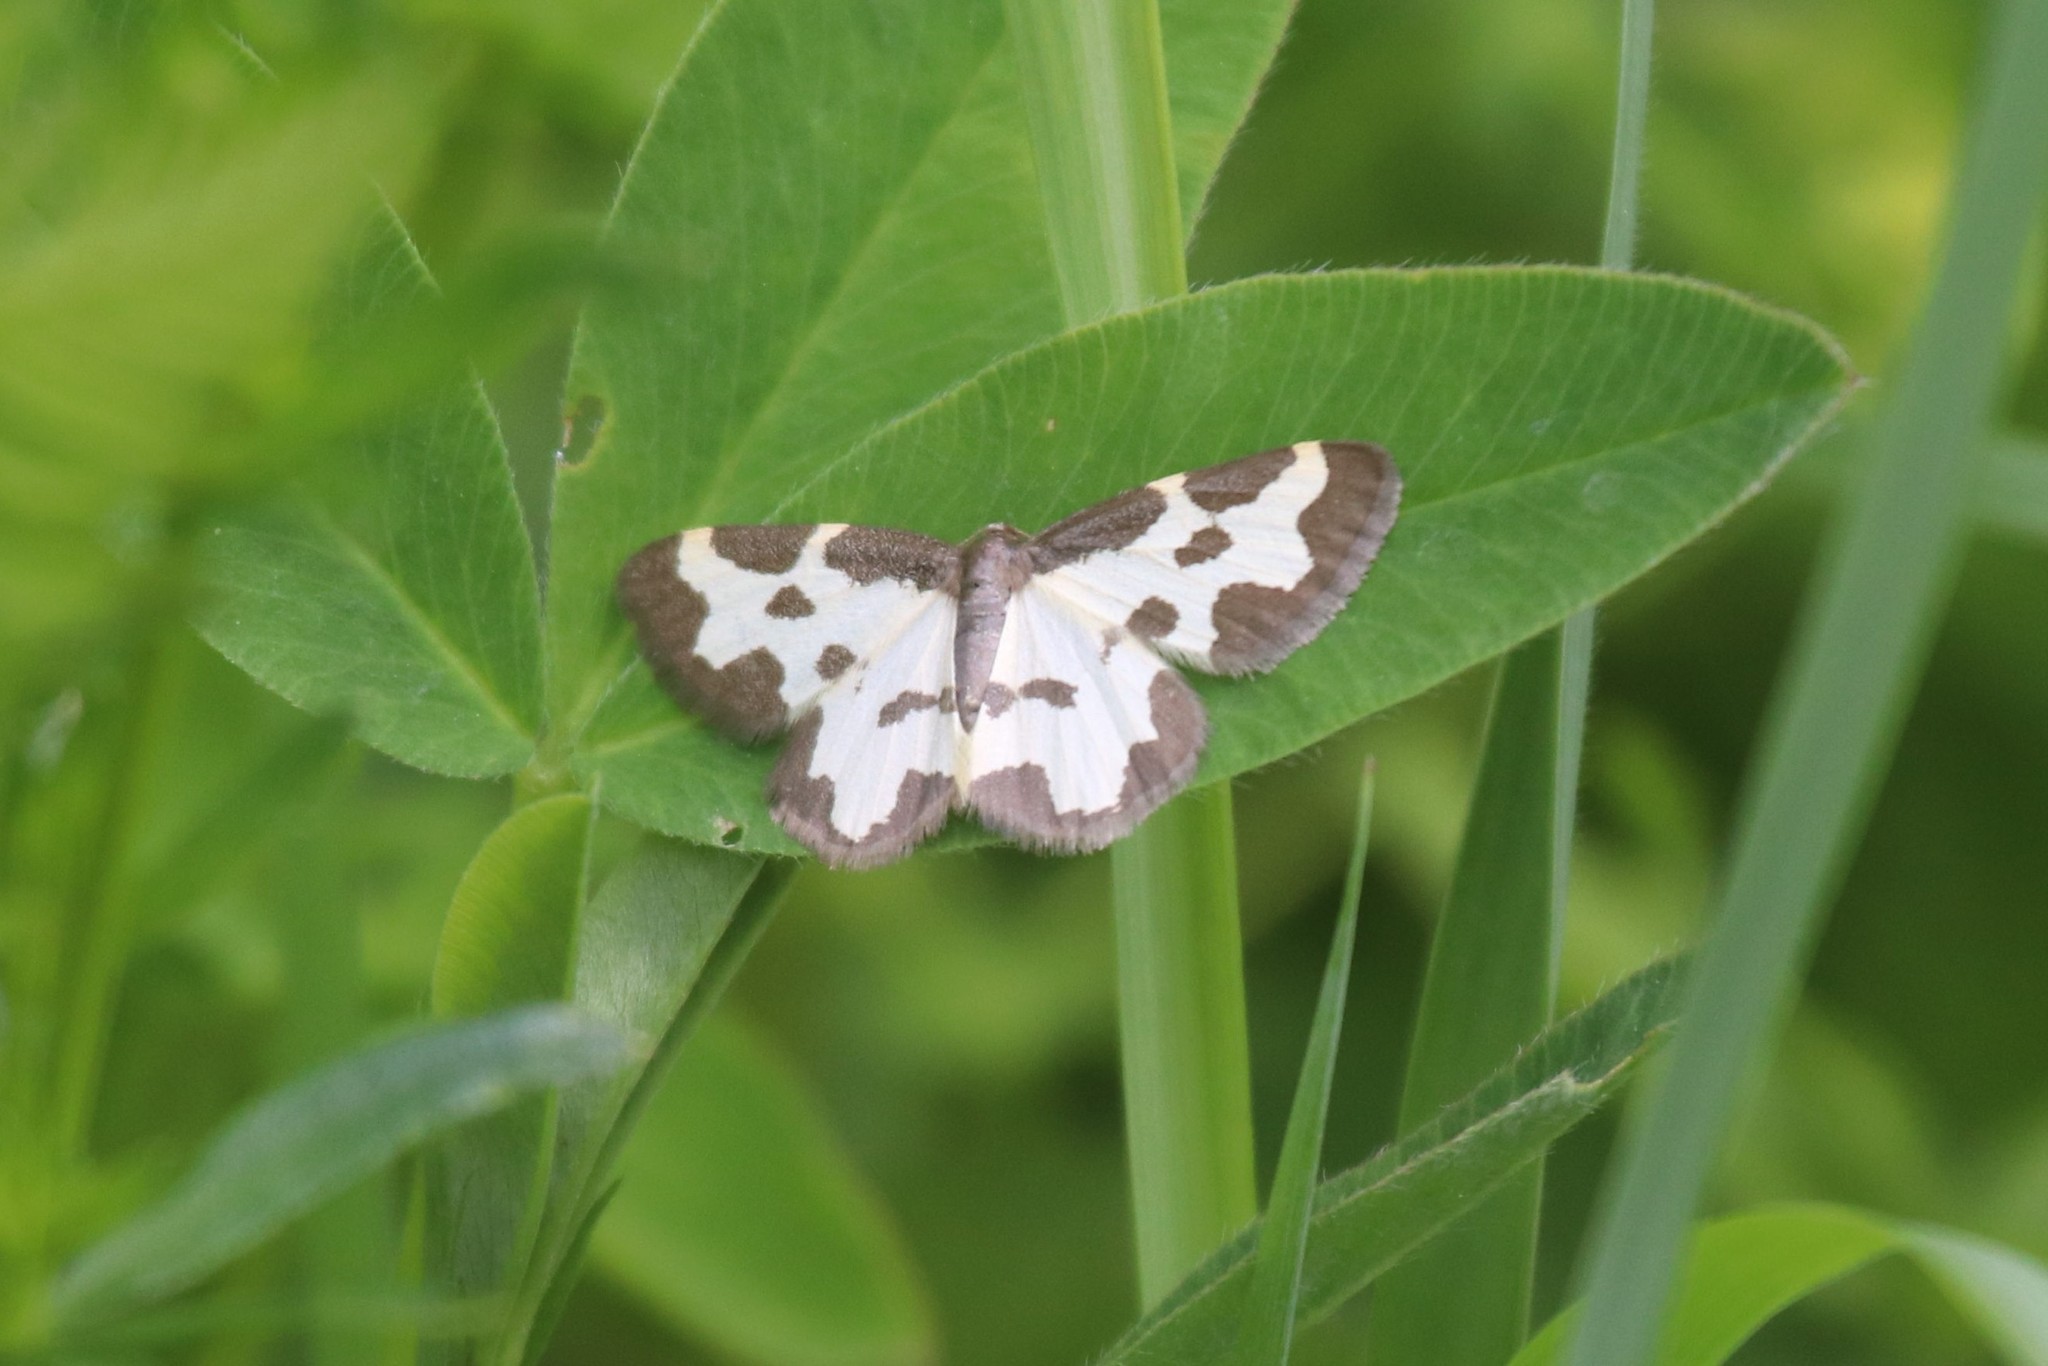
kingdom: Animalia
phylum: Arthropoda
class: Insecta
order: Lepidoptera
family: Geometridae
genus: Lomaspilis
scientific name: Lomaspilis marginata
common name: Clouded border
